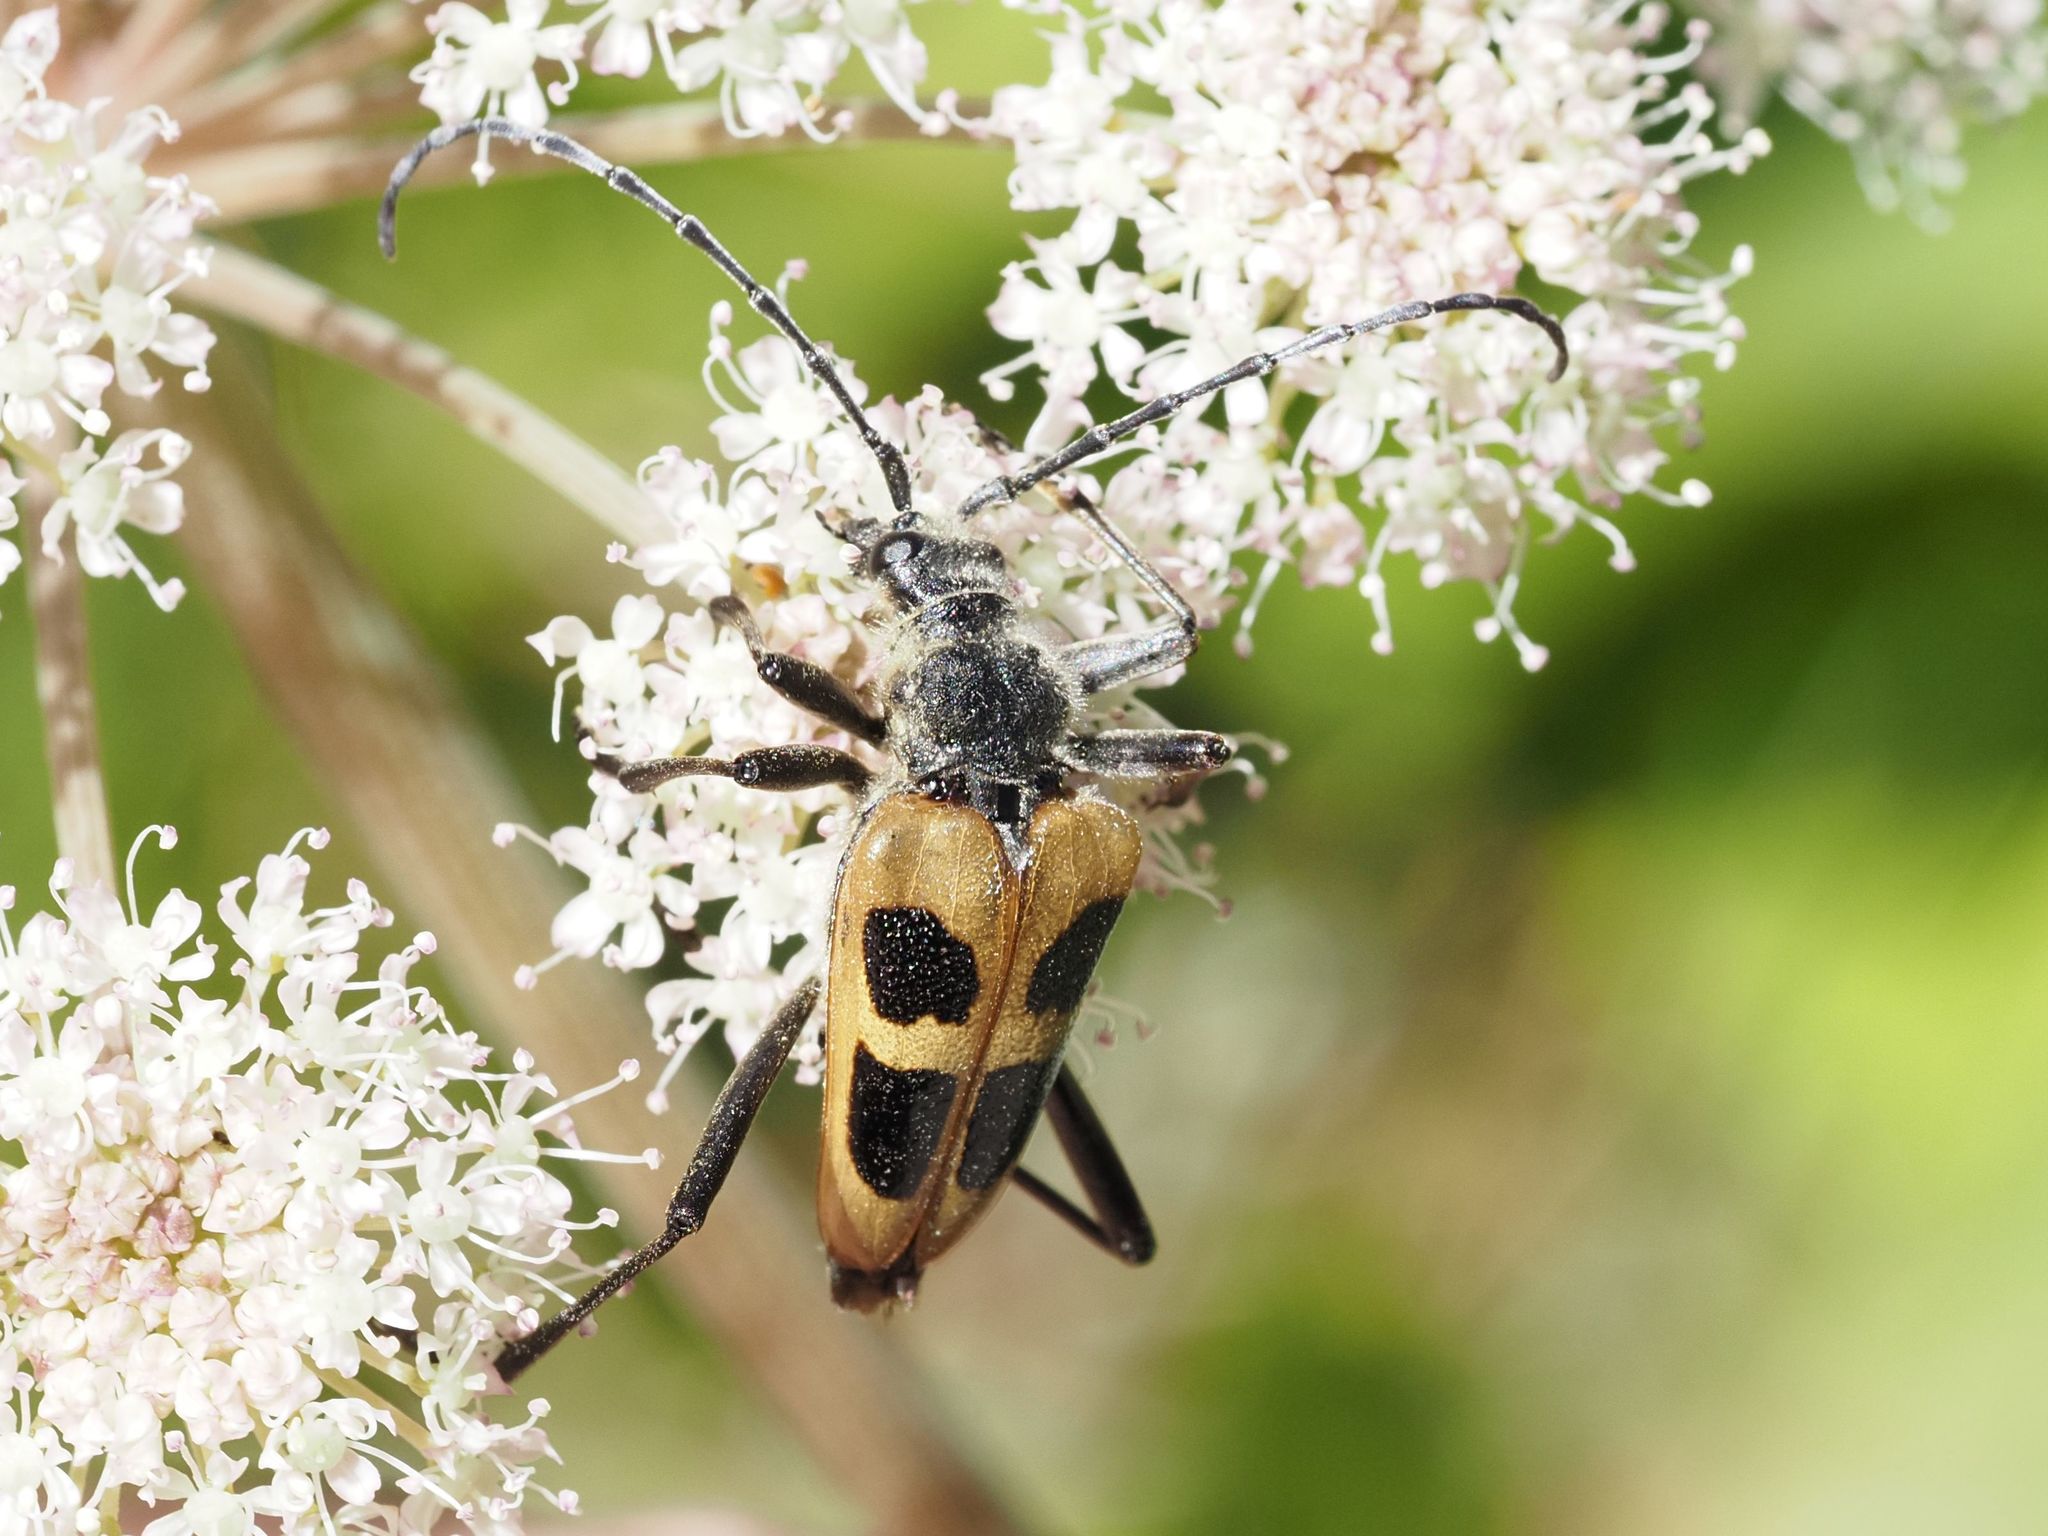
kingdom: Animalia
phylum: Arthropoda
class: Insecta
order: Coleoptera
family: Cerambycidae
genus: Pachyta
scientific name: Pachyta quadrimaculata
